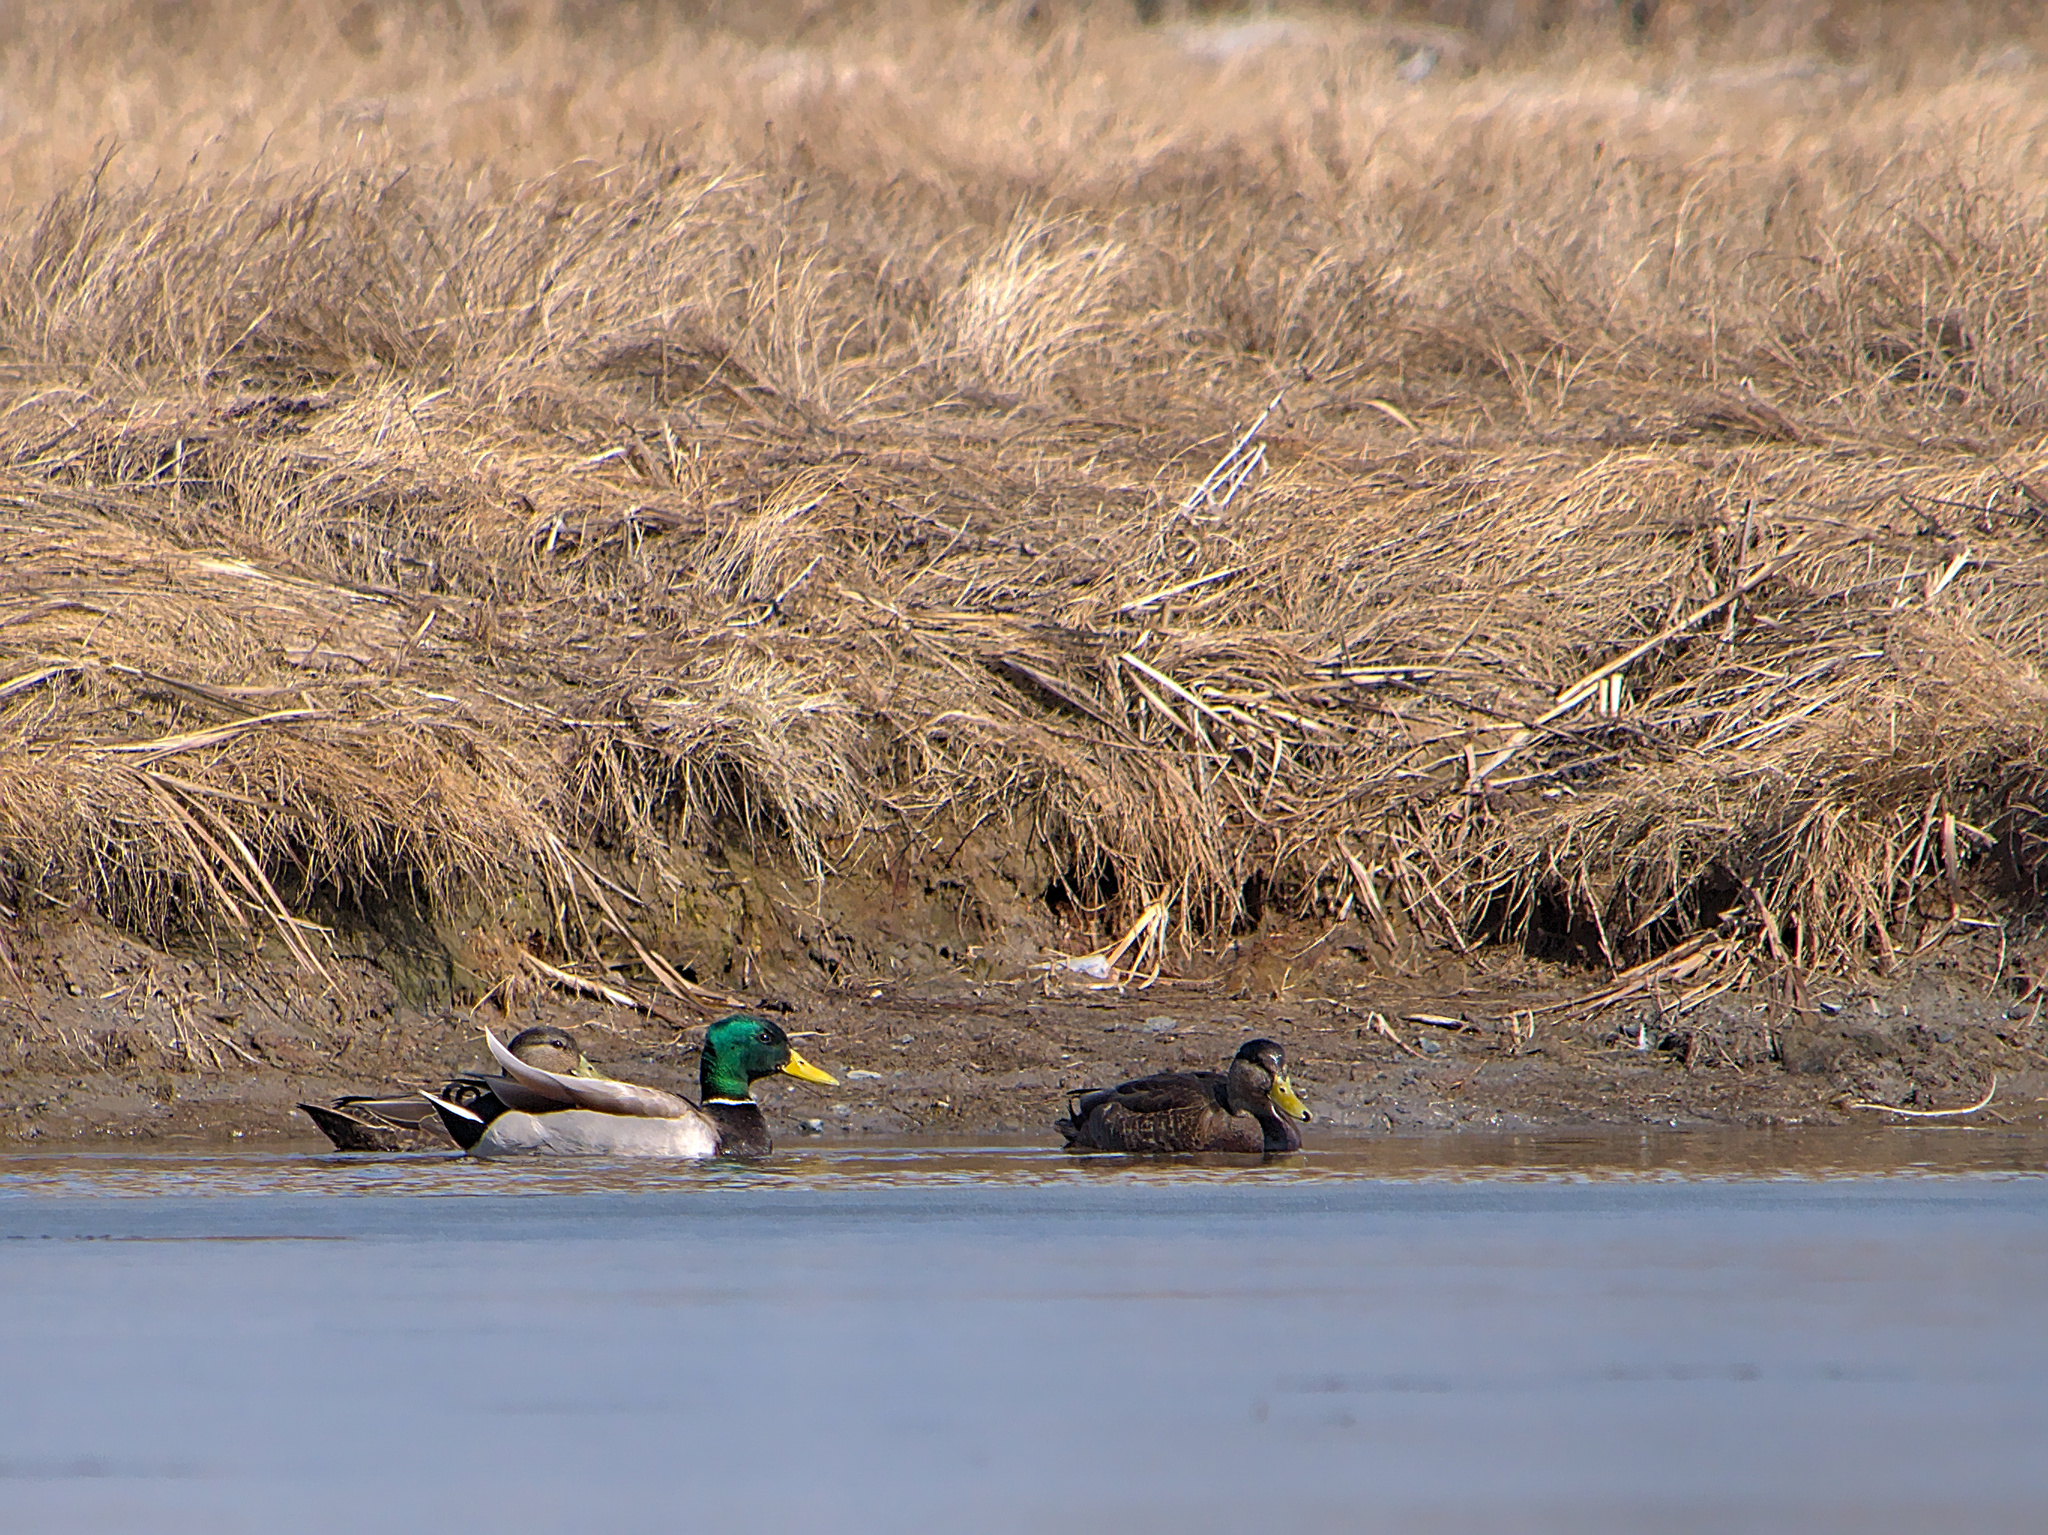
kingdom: Animalia
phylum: Chordata
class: Aves
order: Anseriformes
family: Anatidae
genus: Anas
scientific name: Anas platyrhynchos
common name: Mallard
